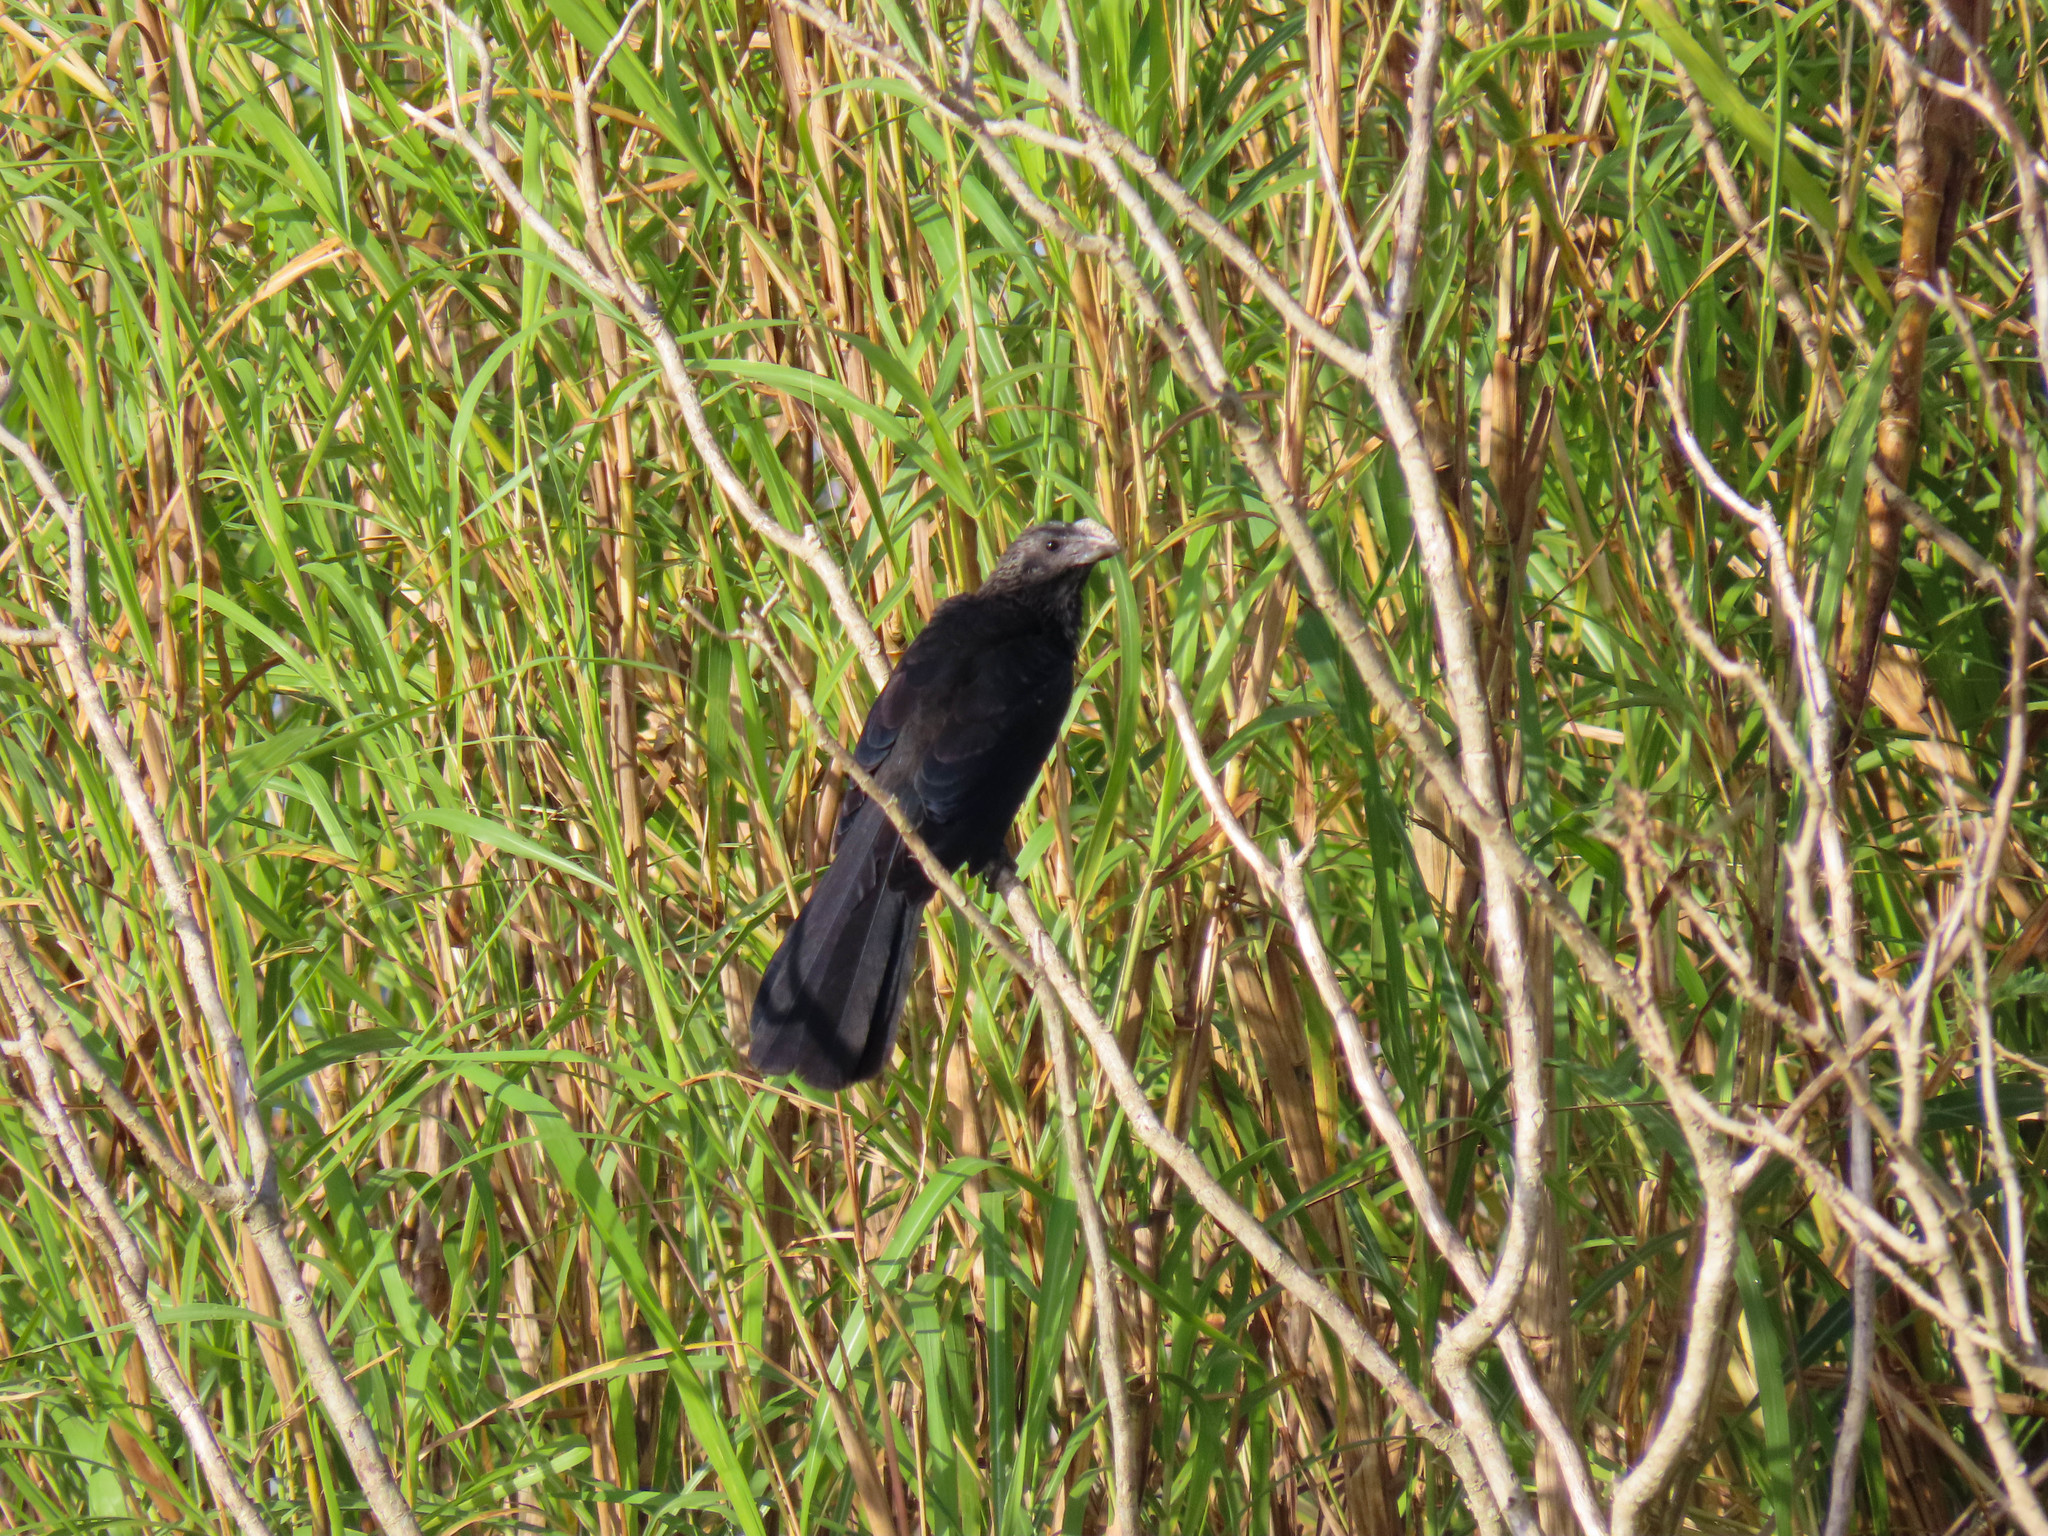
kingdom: Animalia
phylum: Chordata
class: Aves
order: Cuculiformes
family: Cuculidae
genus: Crotophaga
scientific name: Crotophaga ani
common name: Smooth-billed ani
